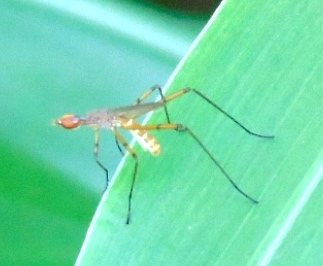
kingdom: Animalia
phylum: Arthropoda
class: Insecta
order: Diptera
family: Micropezidae
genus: Micropeza
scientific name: Micropeza
